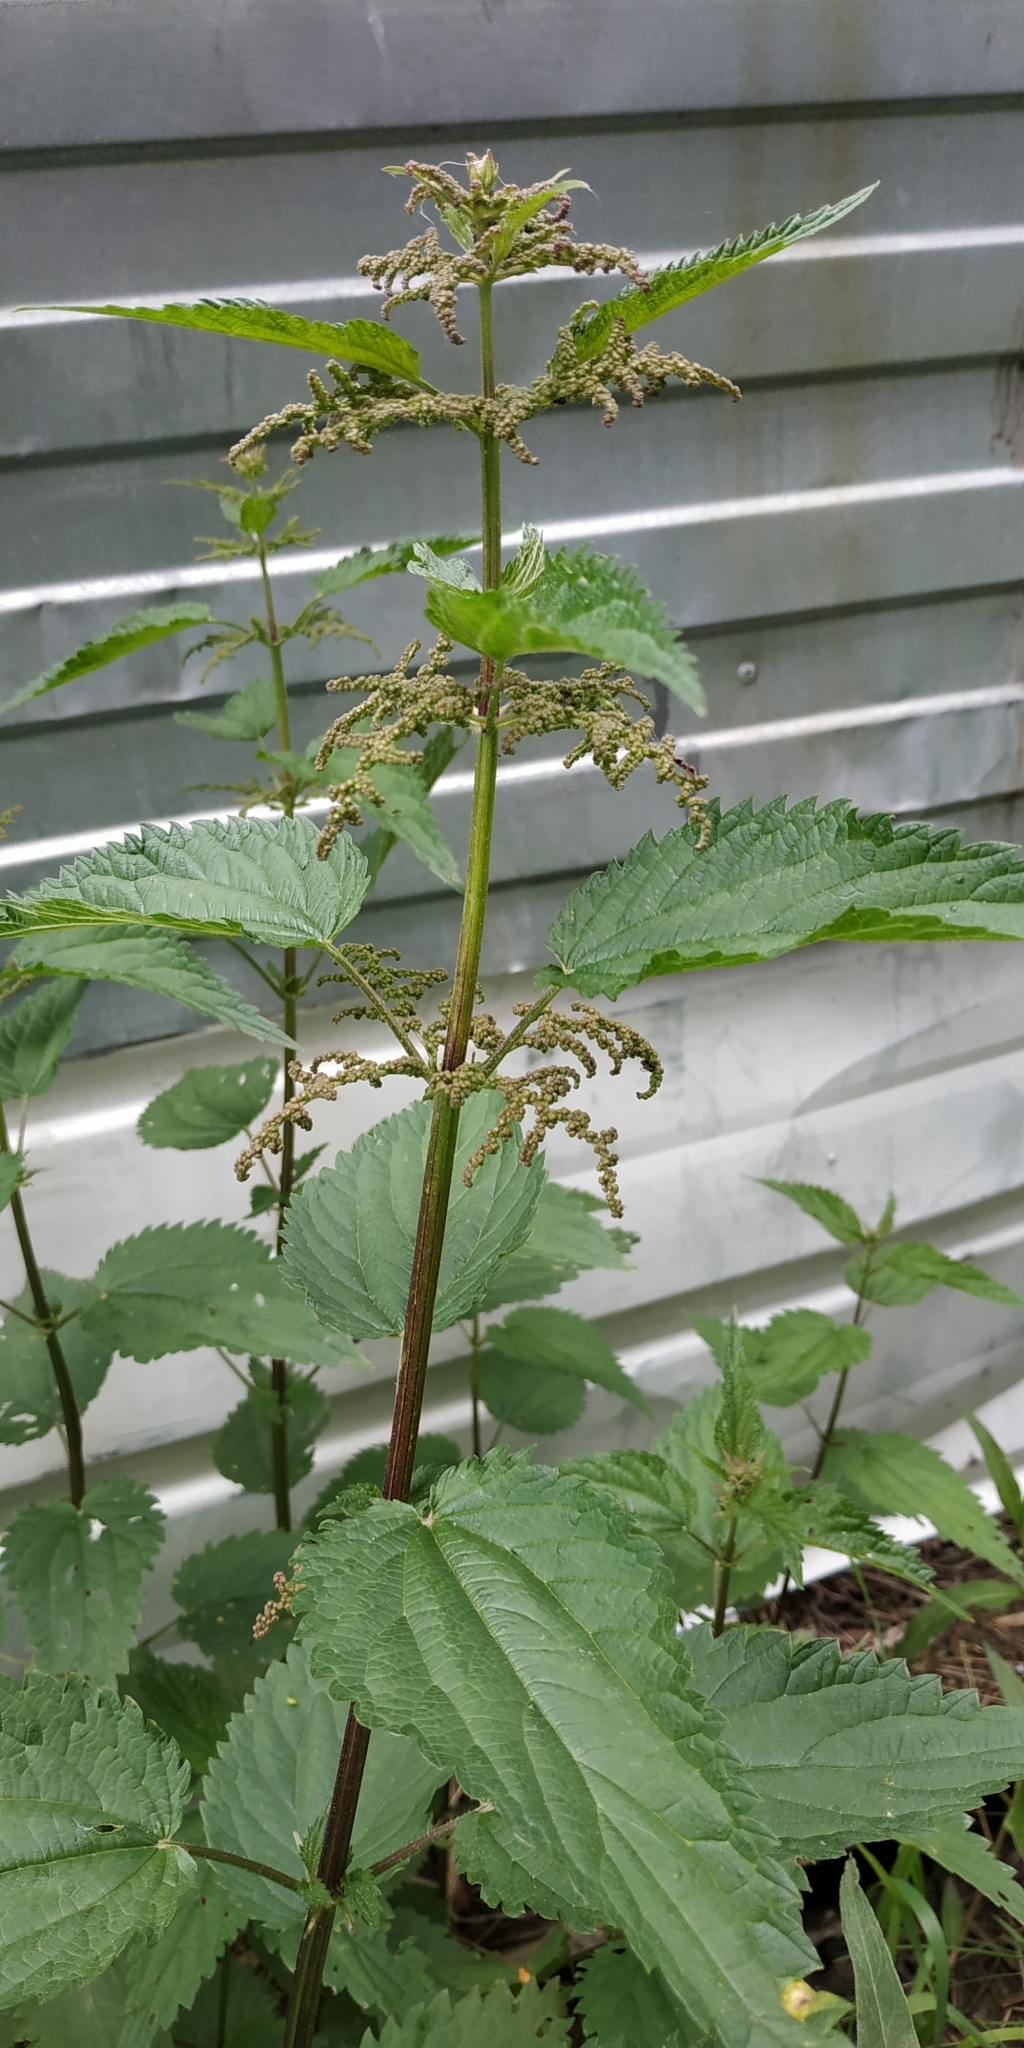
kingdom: Plantae
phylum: Tracheophyta
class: Magnoliopsida
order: Rosales
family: Urticaceae
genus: Urtica
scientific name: Urtica dioica
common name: Common nettle
